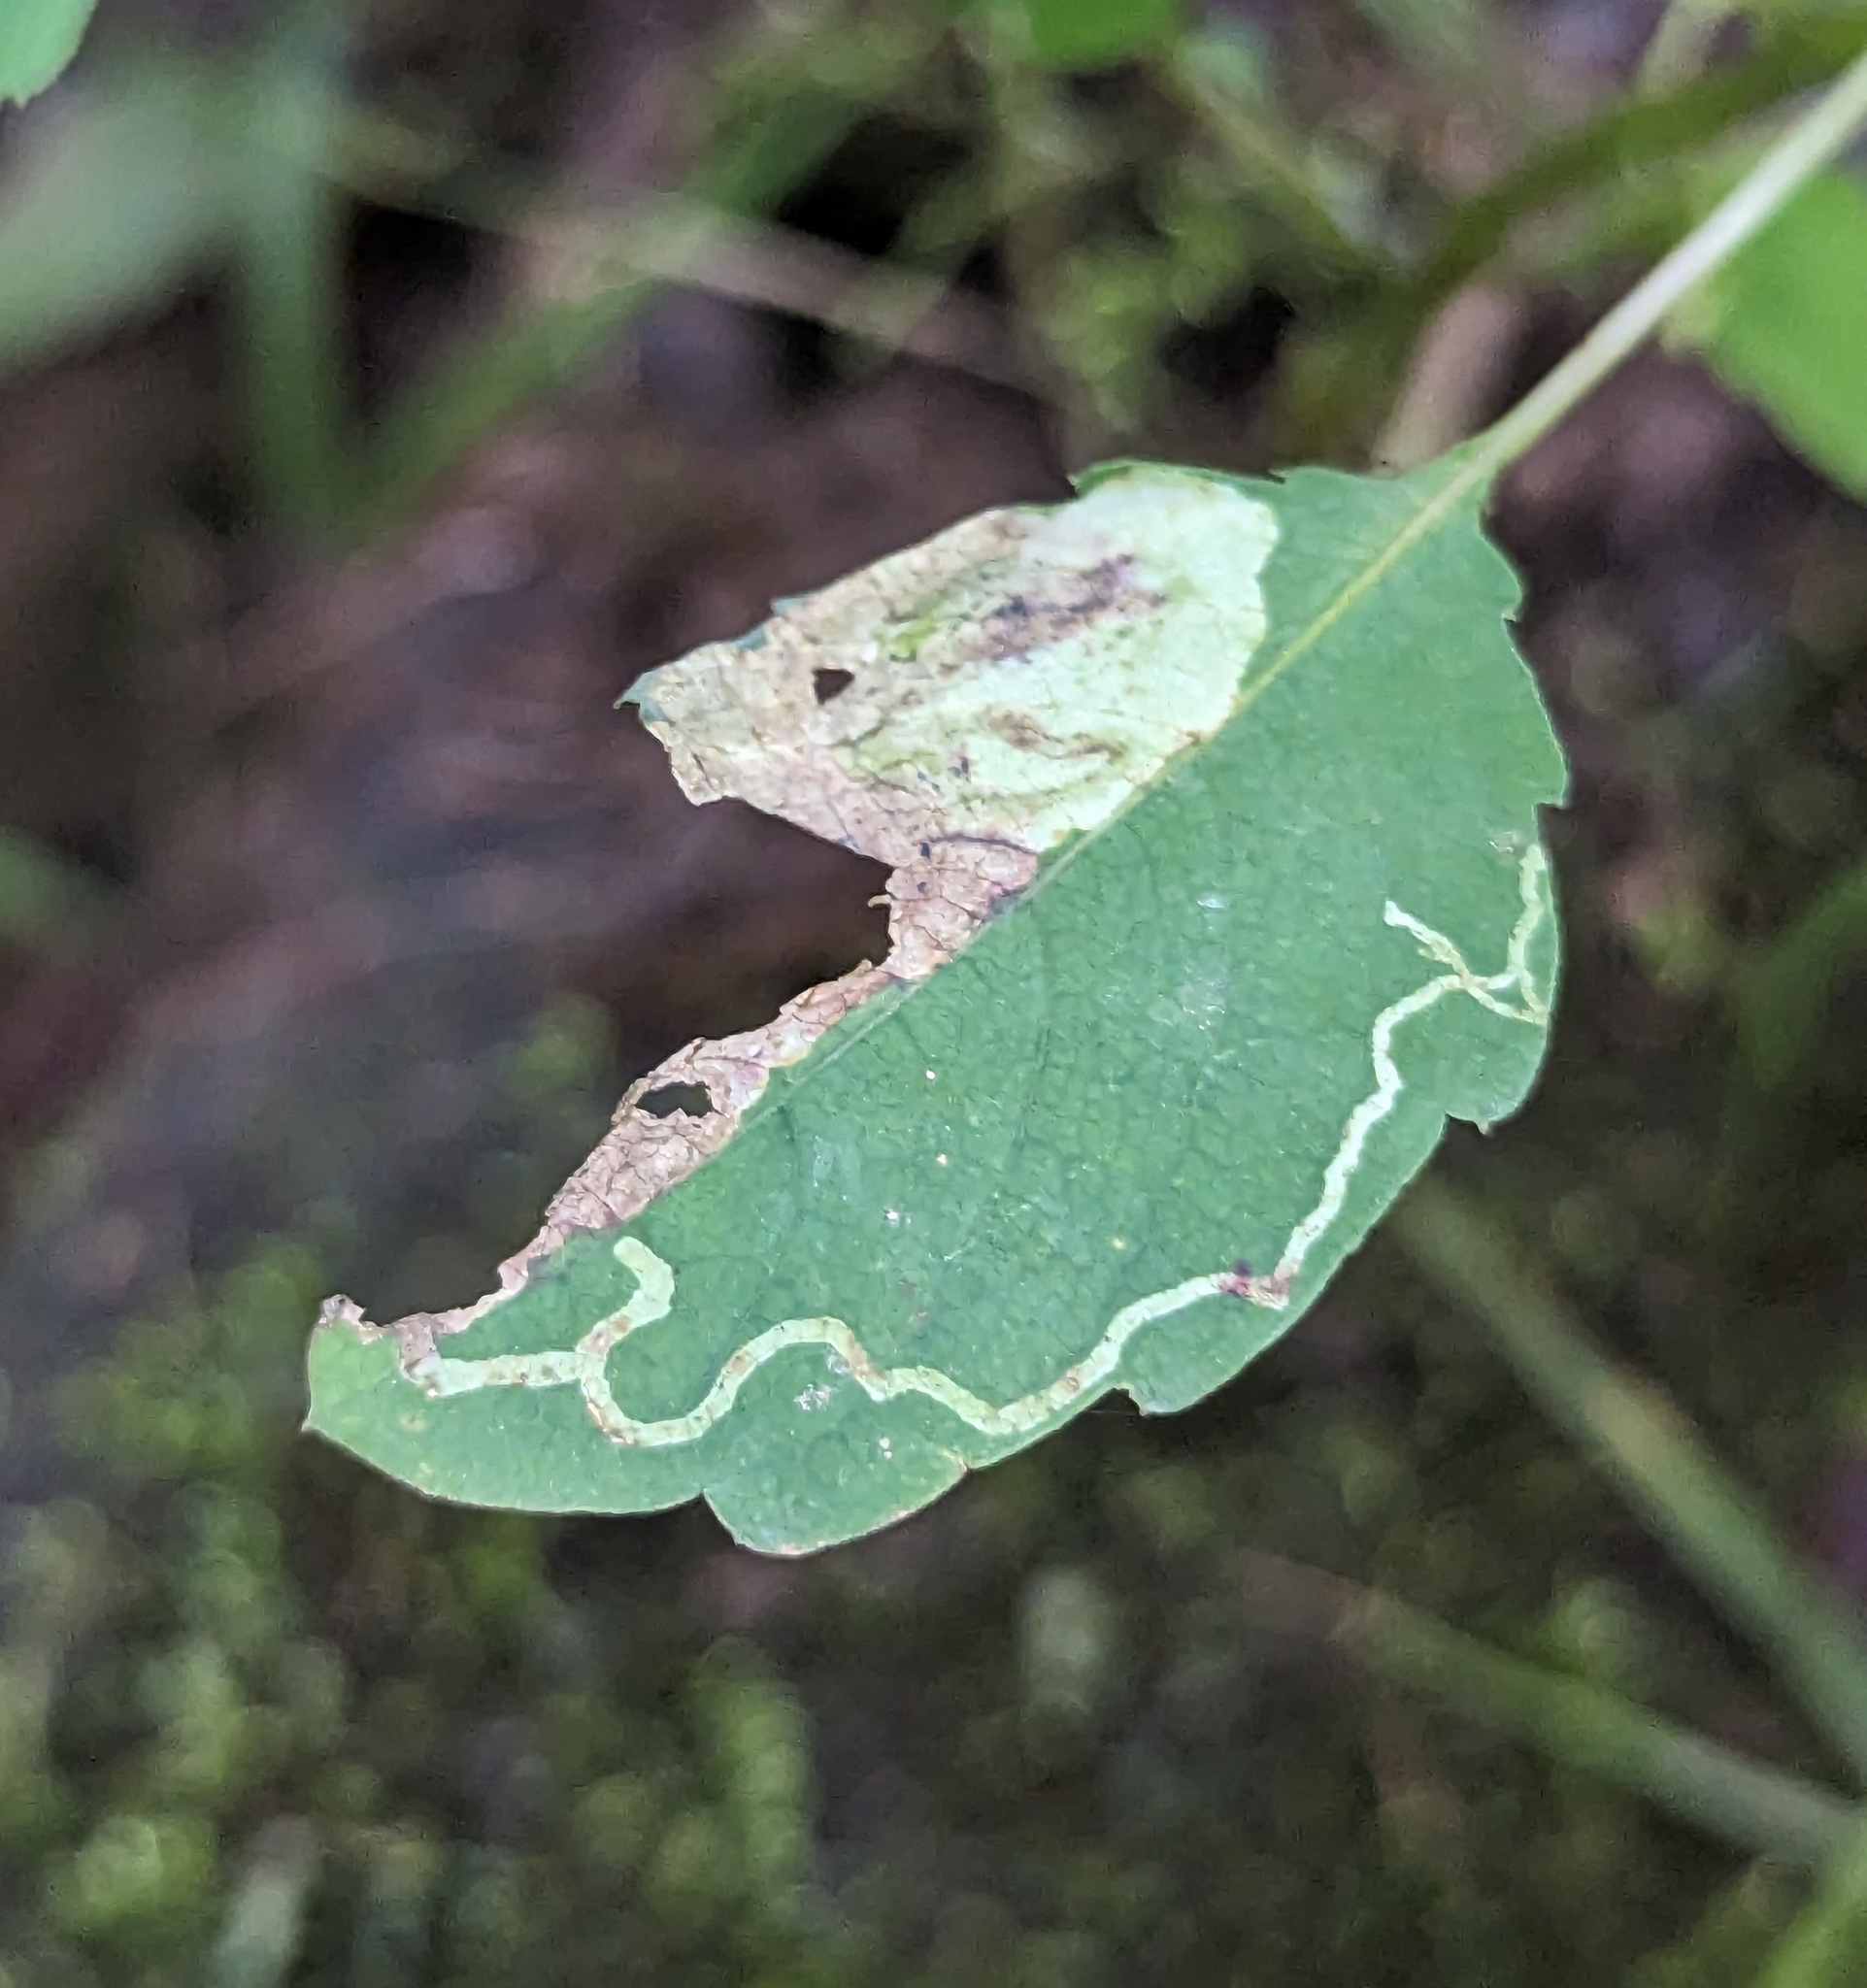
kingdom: Animalia
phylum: Arthropoda
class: Insecta
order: Diptera
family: Agromyzidae
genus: Phytoliriomyza
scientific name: Phytoliriomyza melampyga
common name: Jewelweed leaf-miner fly
